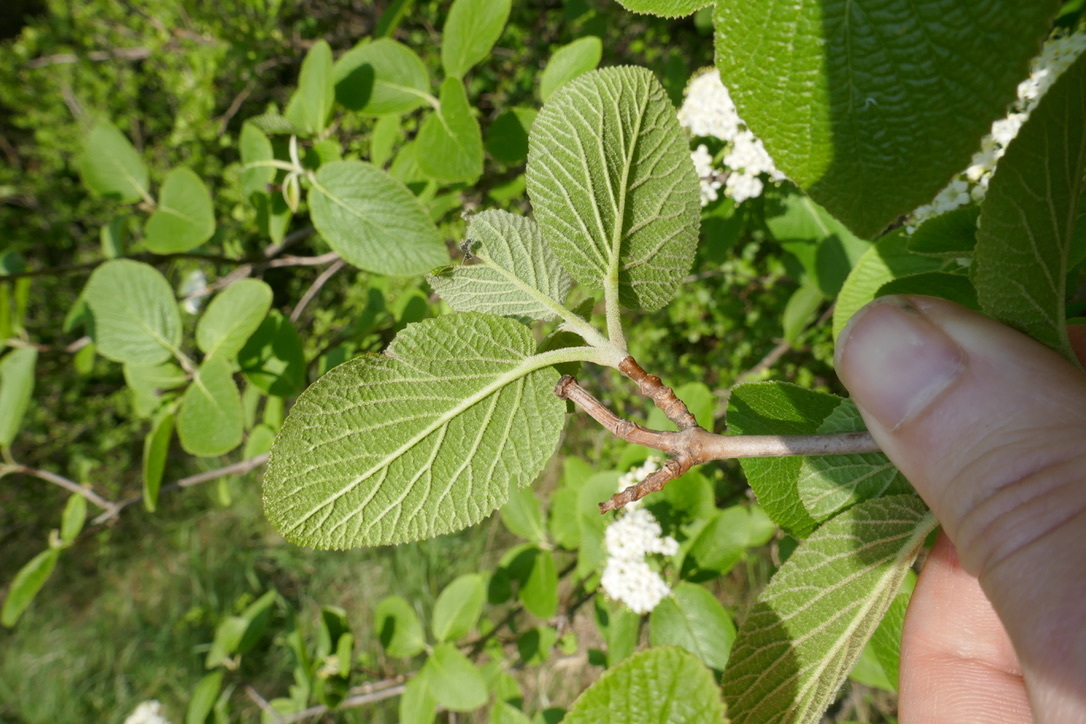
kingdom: Plantae
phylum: Tracheophyta
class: Magnoliopsida
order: Dipsacales
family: Viburnaceae
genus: Viburnum
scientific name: Viburnum lantana
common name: Wayfaring tree
